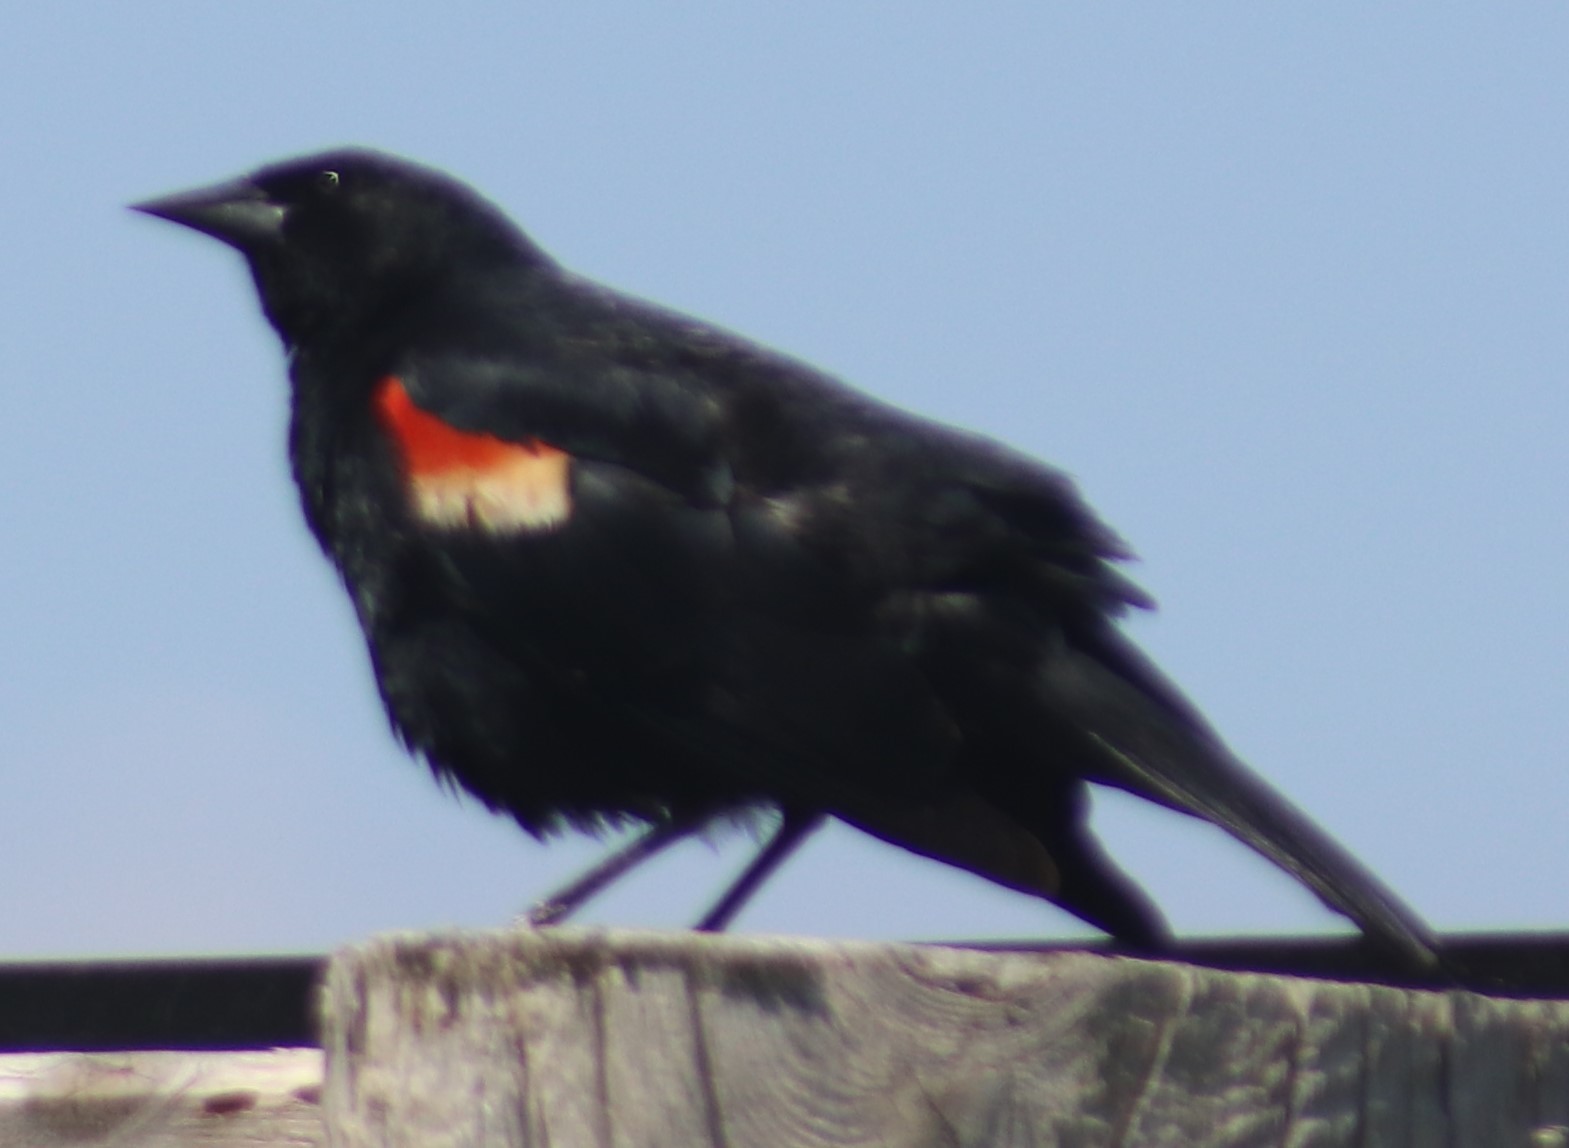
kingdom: Animalia
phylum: Chordata
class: Aves
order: Passeriformes
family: Icteridae
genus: Agelaius
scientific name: Agelaius phoeniceus
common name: Red-winged blackbird
